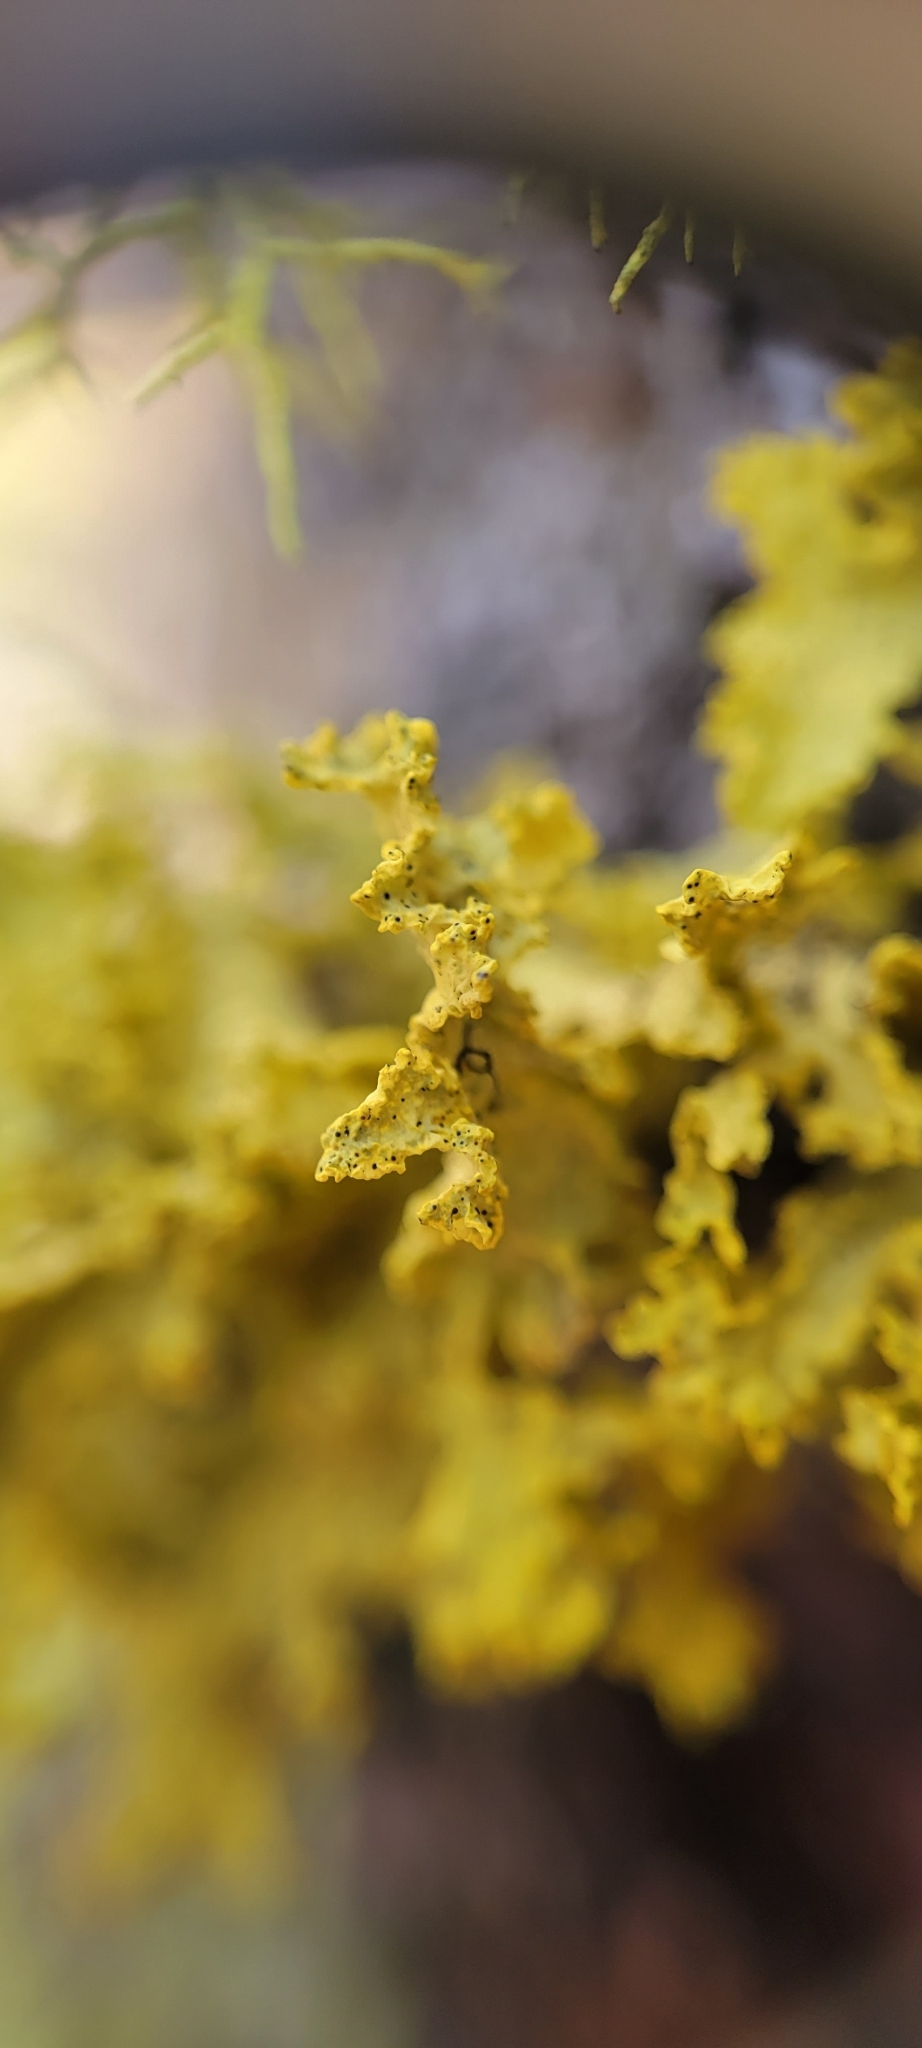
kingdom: Fungi
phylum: Ascomycota
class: Lecanoromycetes
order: Lecanorales
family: Parmeliaceae
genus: Vulpicida
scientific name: Vulpicida canadensis
